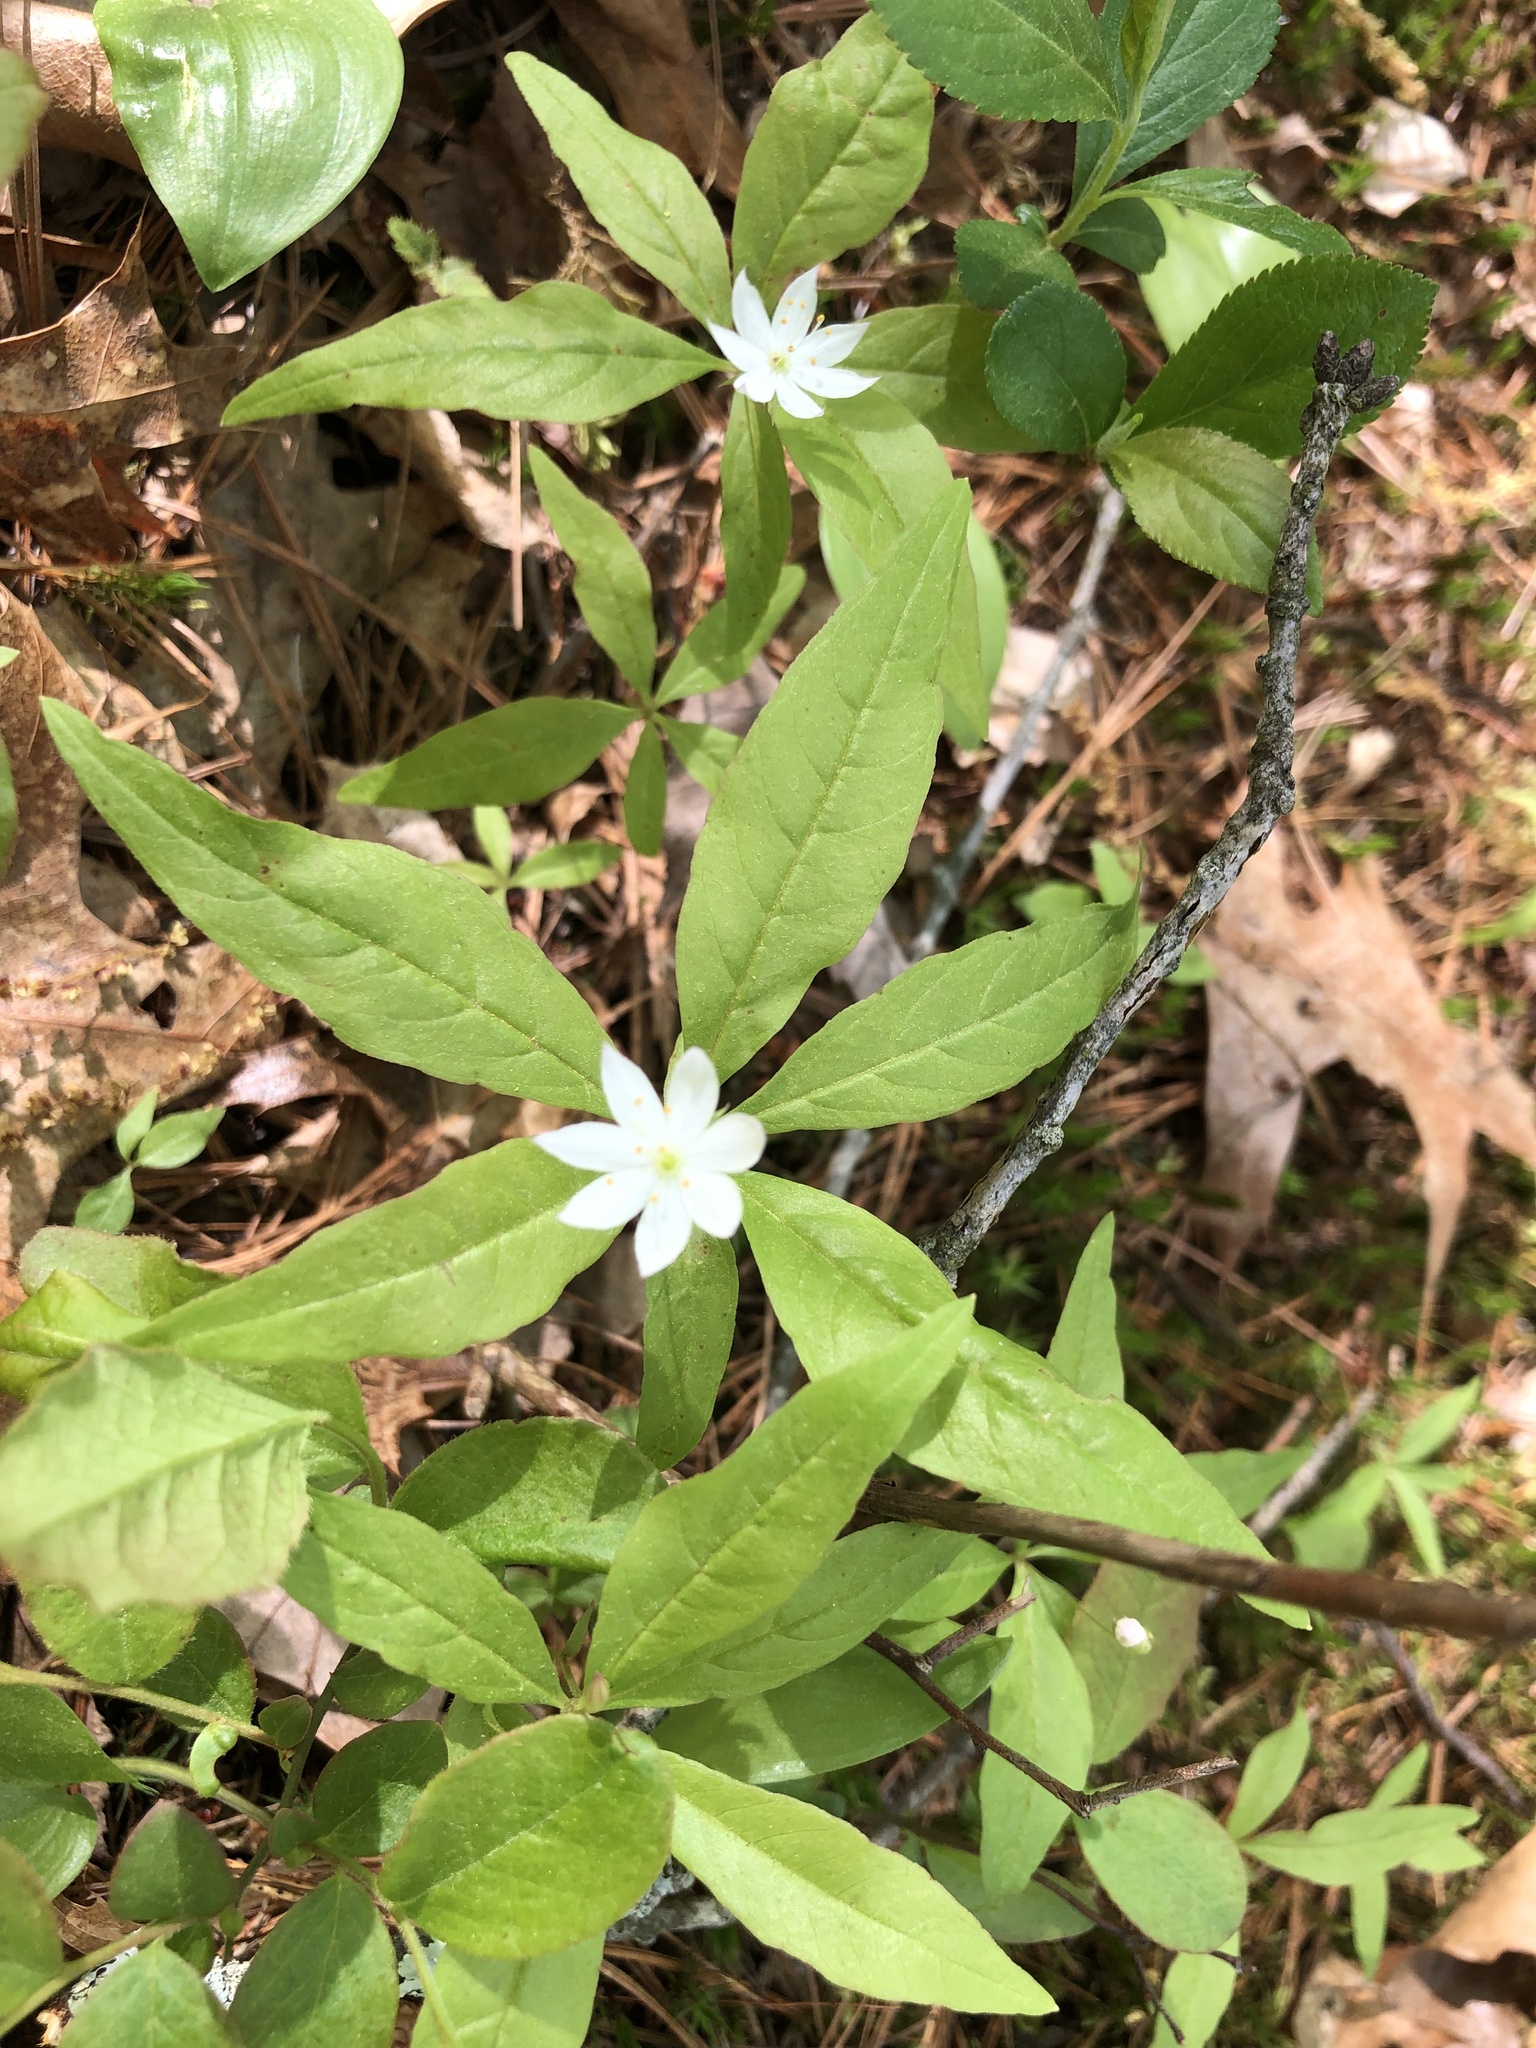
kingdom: Plantae
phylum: Tracheophyta
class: Magnoliopsida
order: Ericales
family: Primulaceae
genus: Lysimachia
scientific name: Lysimachia borealis
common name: American starflower
